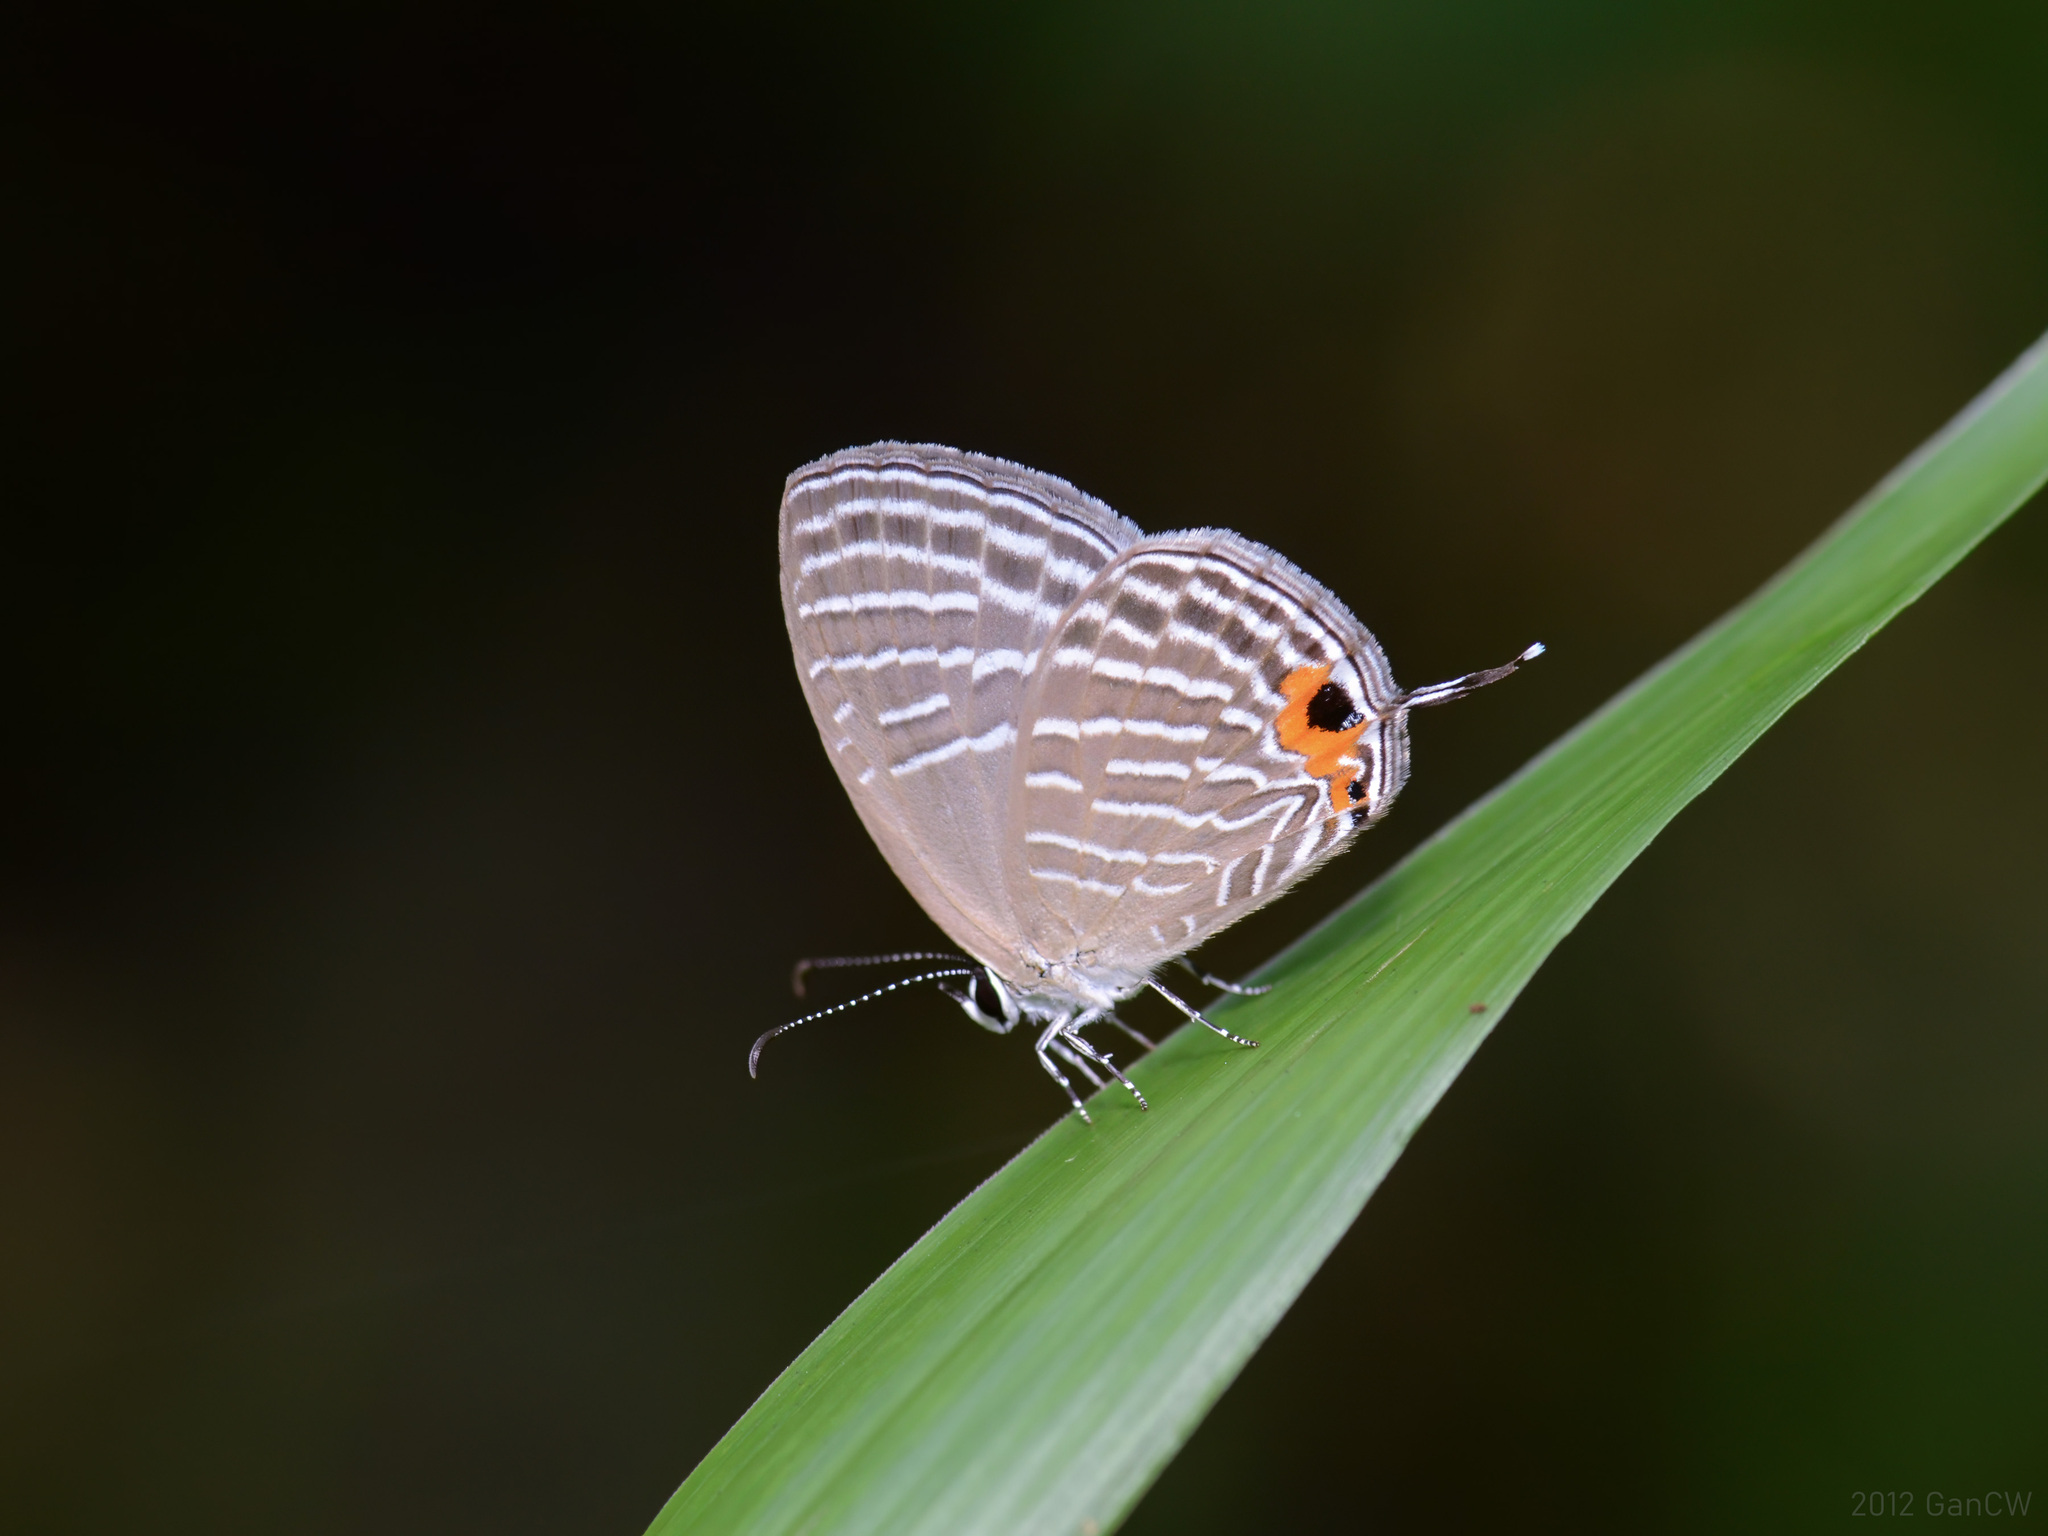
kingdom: Animalia
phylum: Arthropoda
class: Insecta
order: Lepidoptera
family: Lycaenidae
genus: Jamides
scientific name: Jamides celeno
